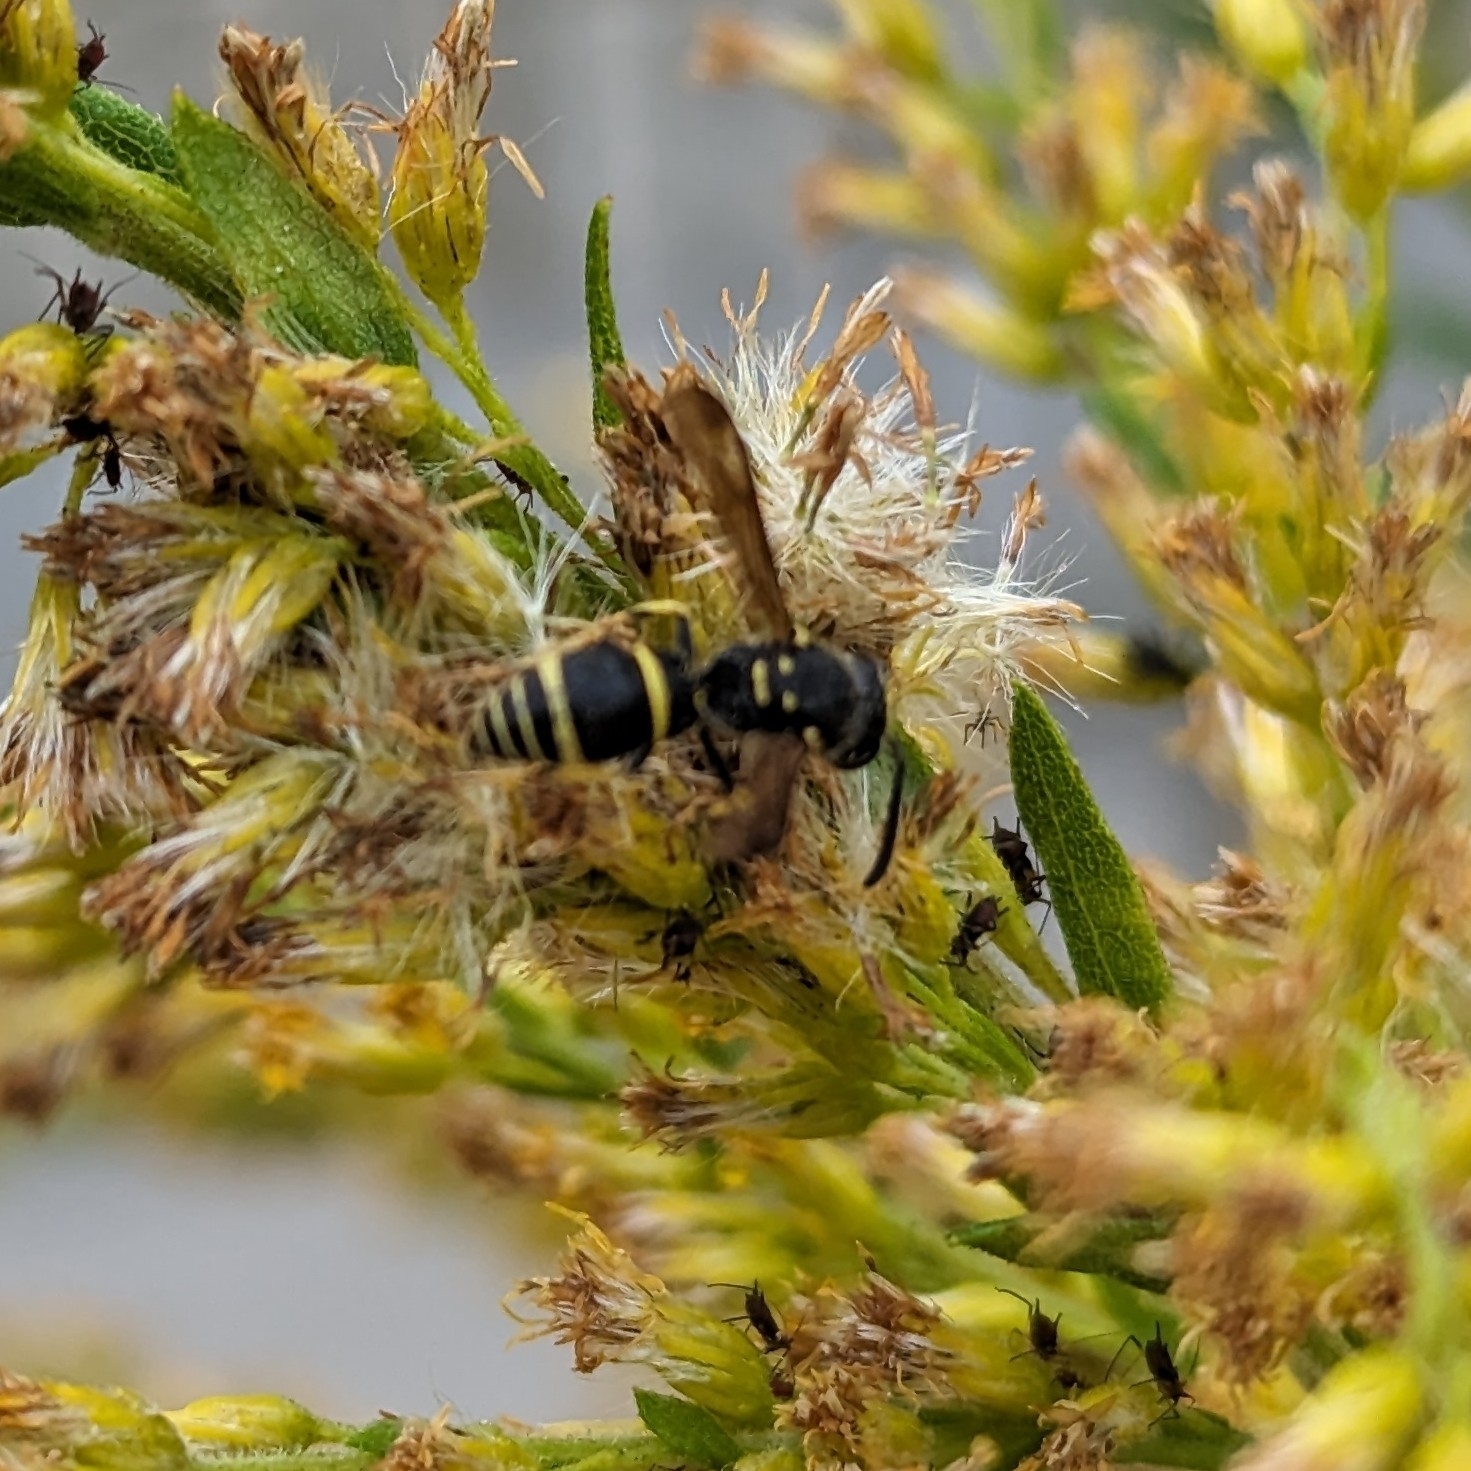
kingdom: Animalia
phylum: Arthropoda
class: Insecta
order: Hymenoptera
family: Vespidae
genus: Ancistrocerus
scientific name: Ancistrocerus adiabatus
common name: Bramble mason wasp
